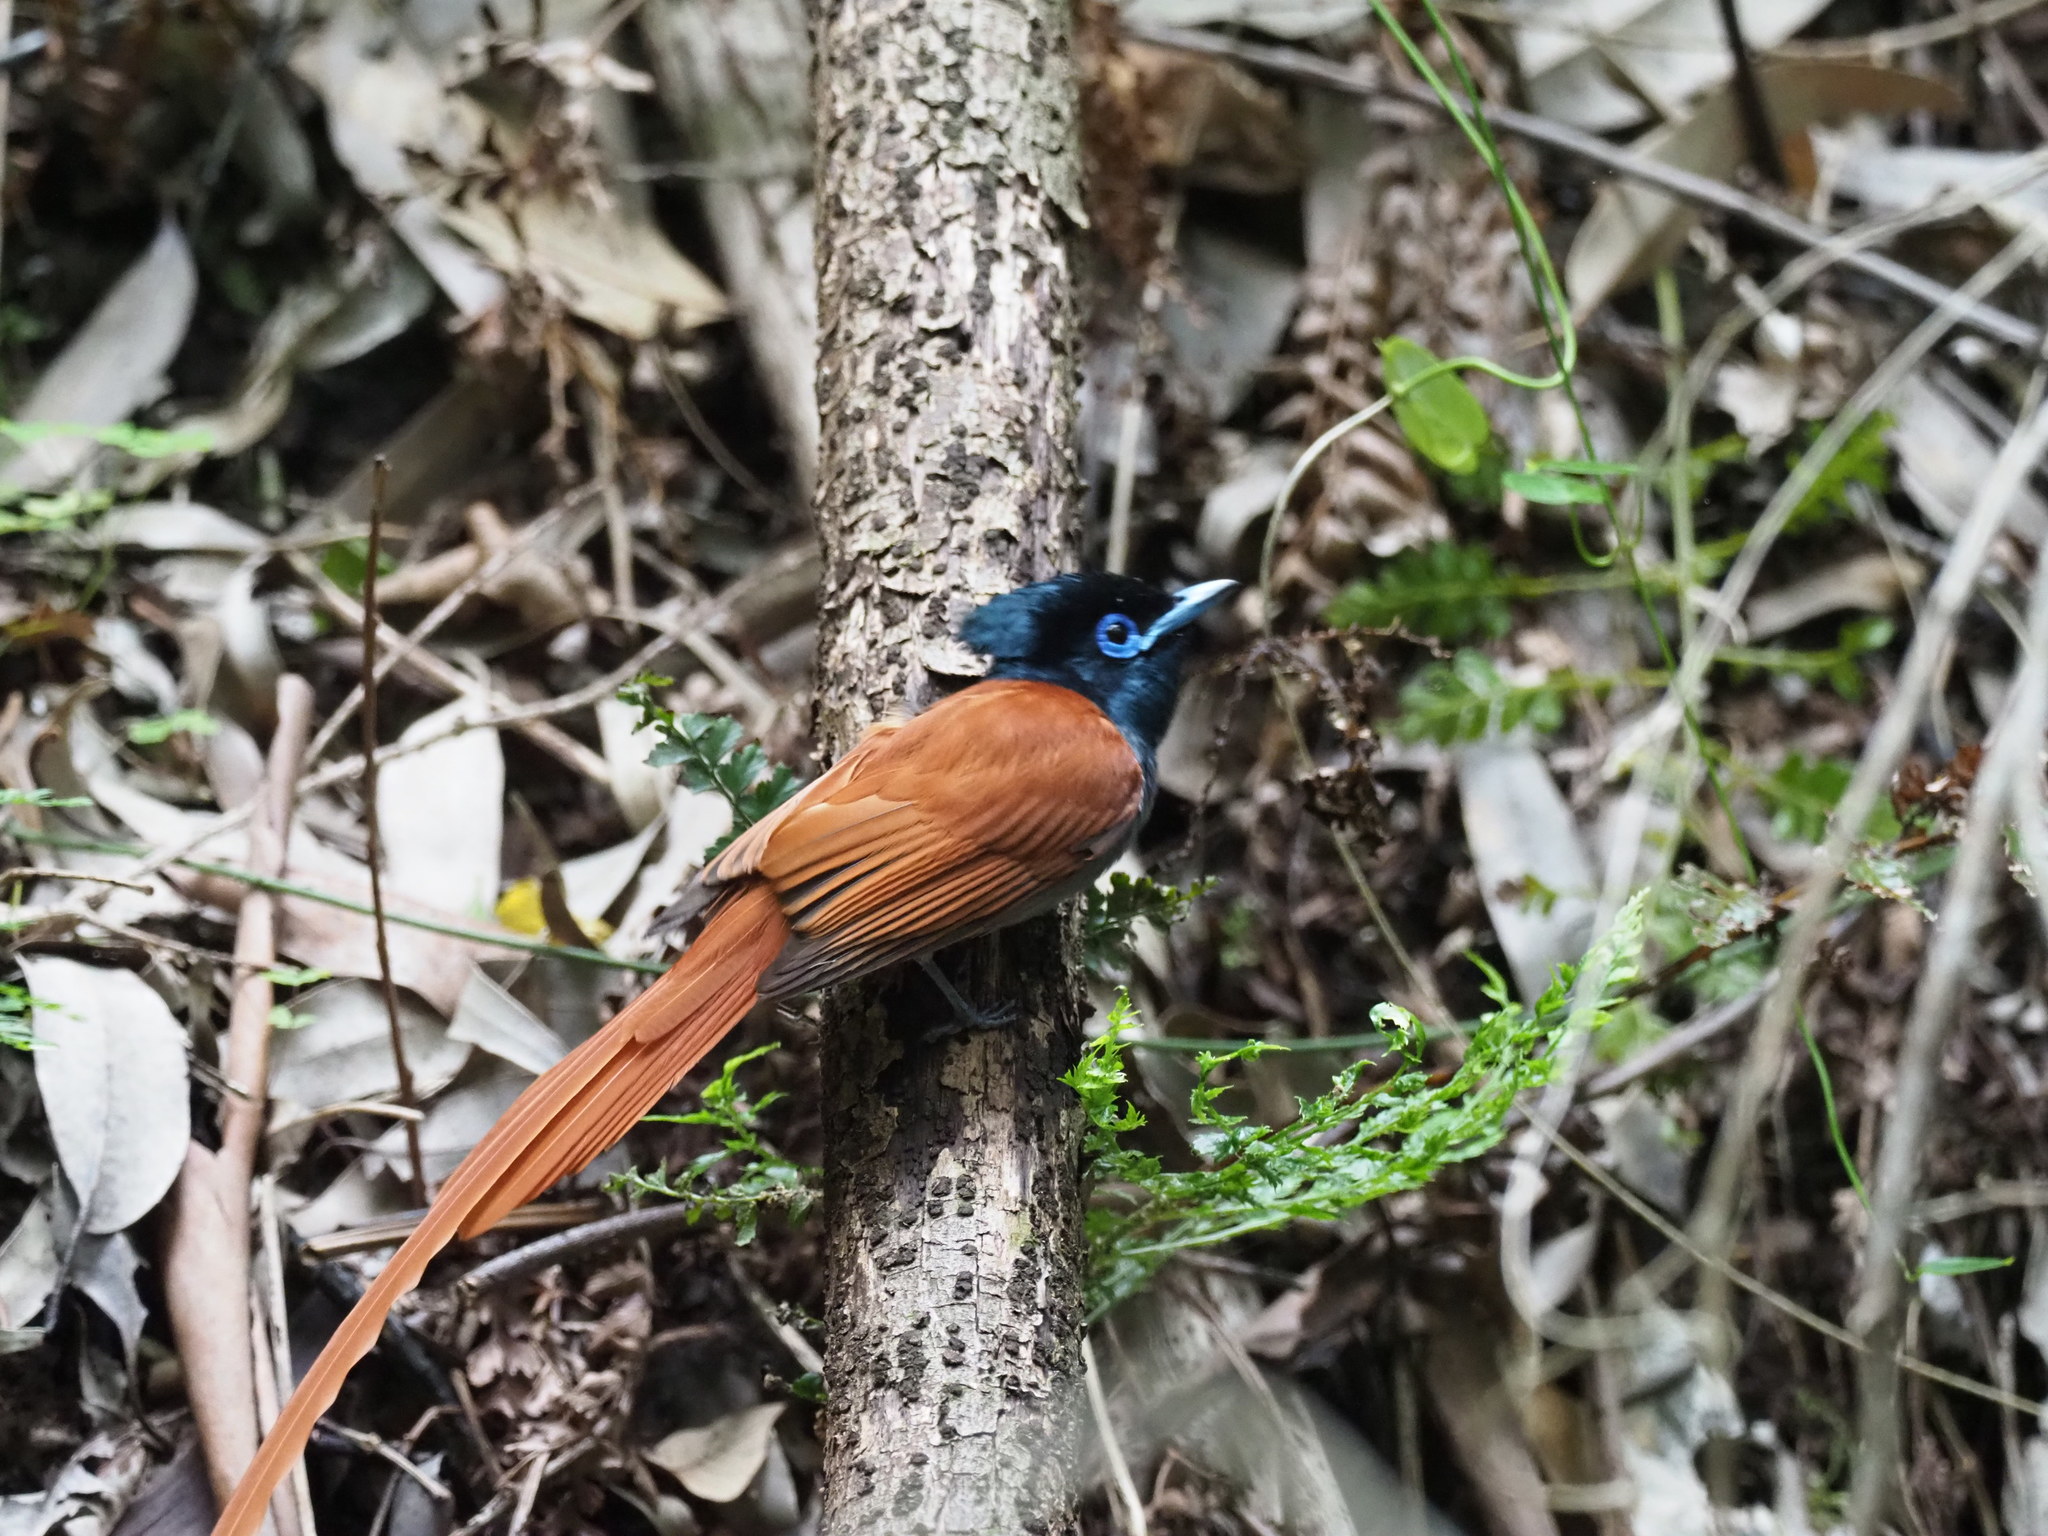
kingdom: Animalia
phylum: Chordata
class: Aves
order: Passeriformes
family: Monarchidae
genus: Terpsiphone
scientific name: Terpsiphone viridis
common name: African paradise flycatcher
